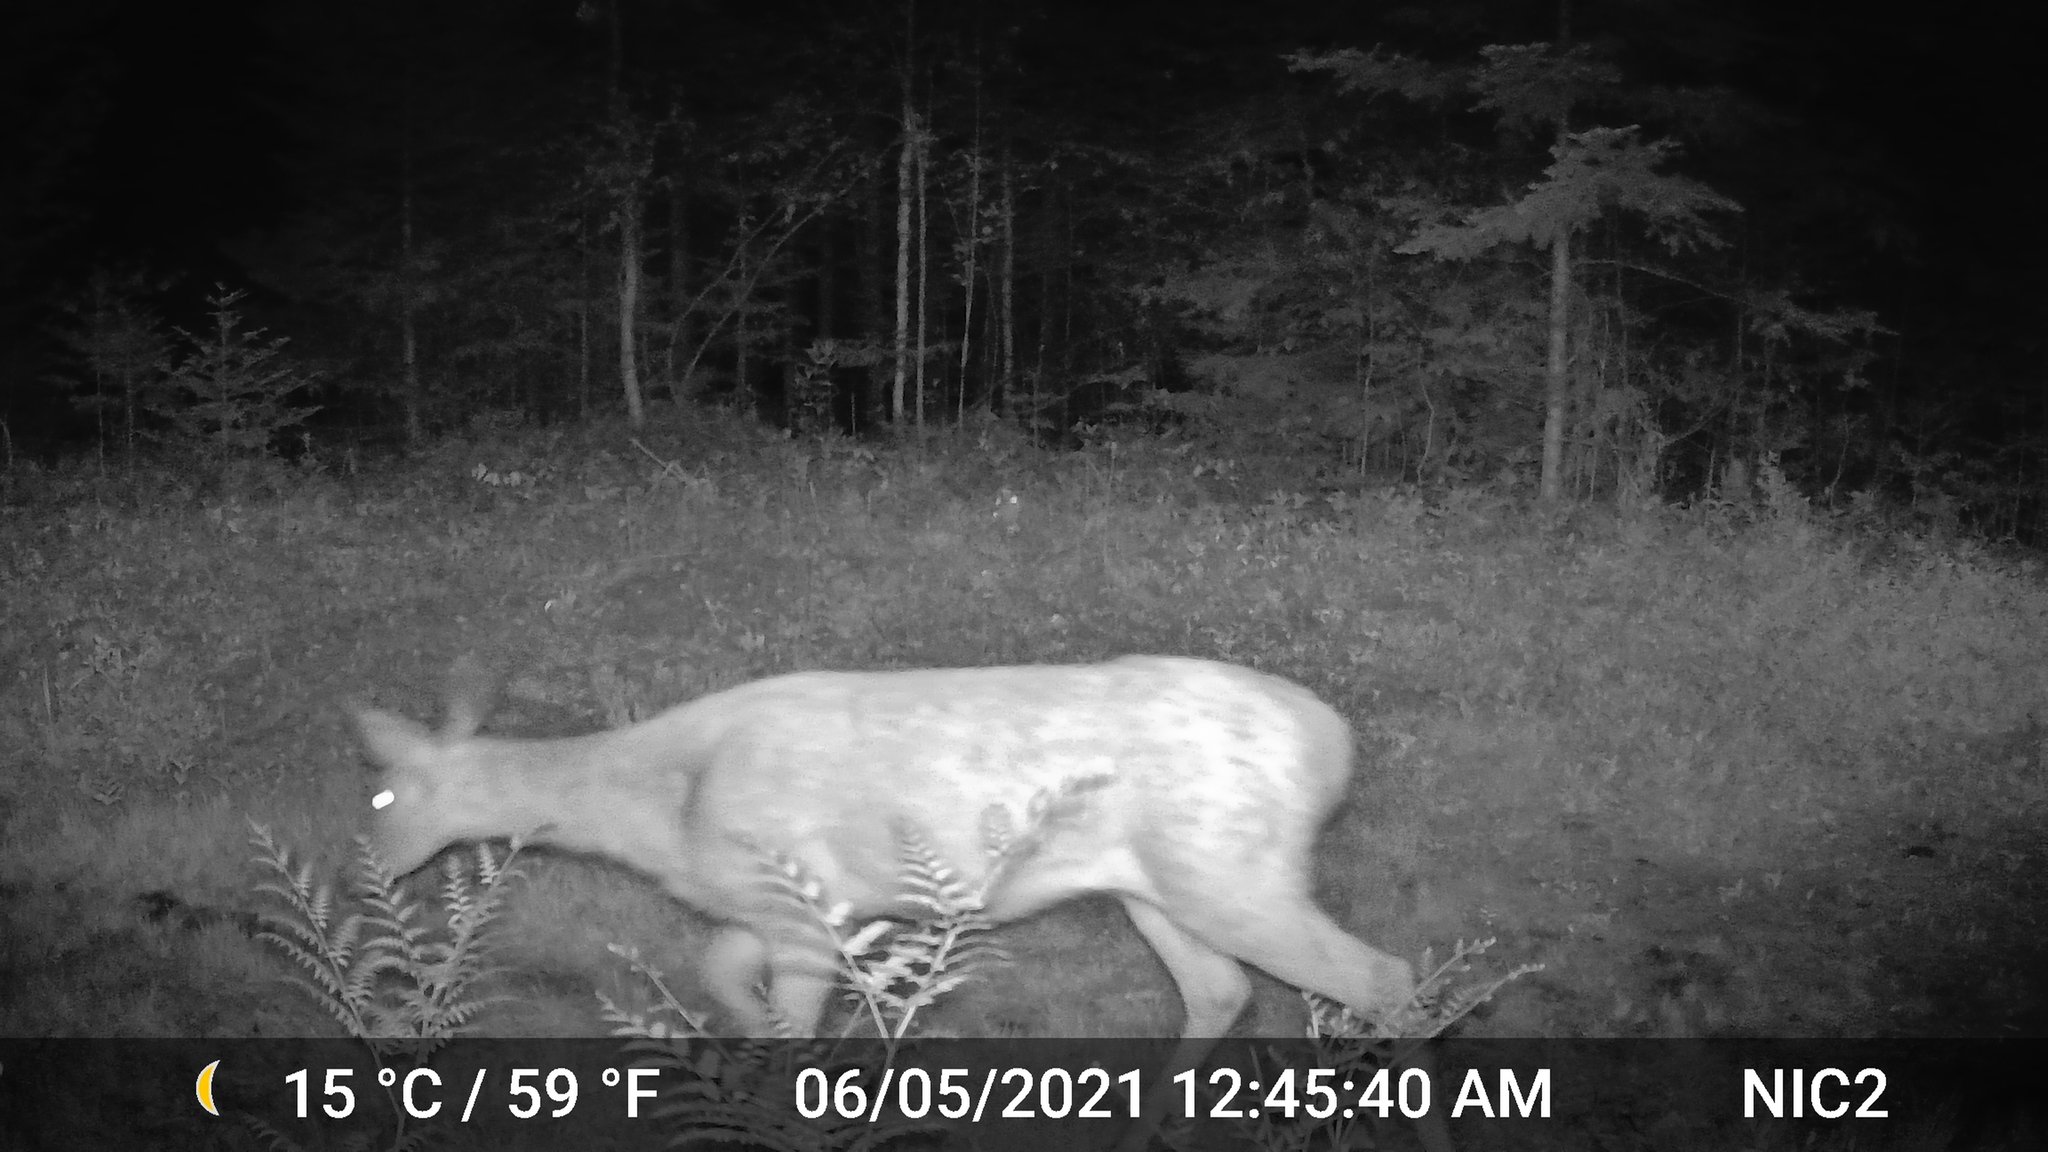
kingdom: Animalia
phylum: Chordata
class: Mammalia
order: Artiodactyla
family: Cervidae
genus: Odocoileus
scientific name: Odocoileus virginianus
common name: White-tailed deer
